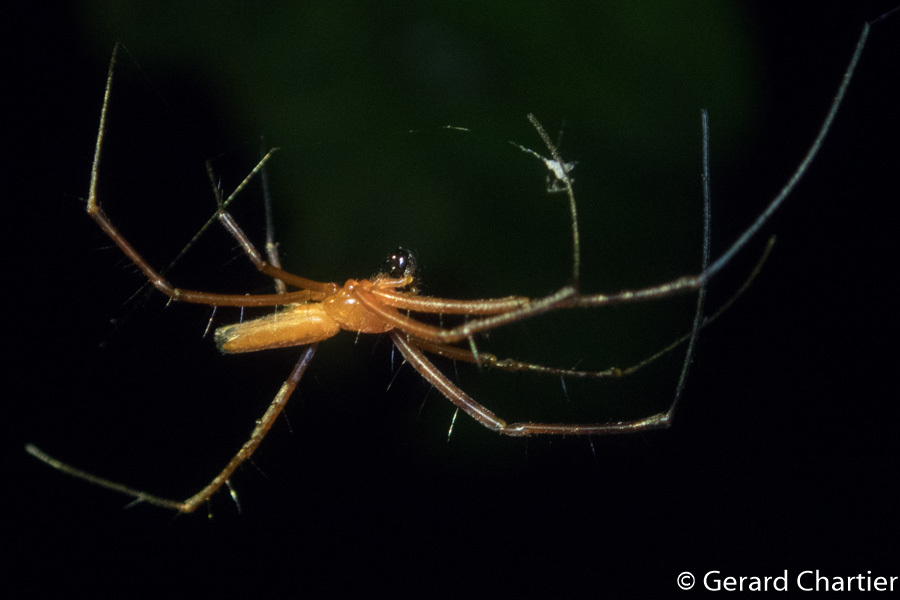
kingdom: Animalia
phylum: Arthropoda
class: Arachnida
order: Araneae
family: Araneidae
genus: Nephila
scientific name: Nephila pilipes
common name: Giant golden orb weaver
